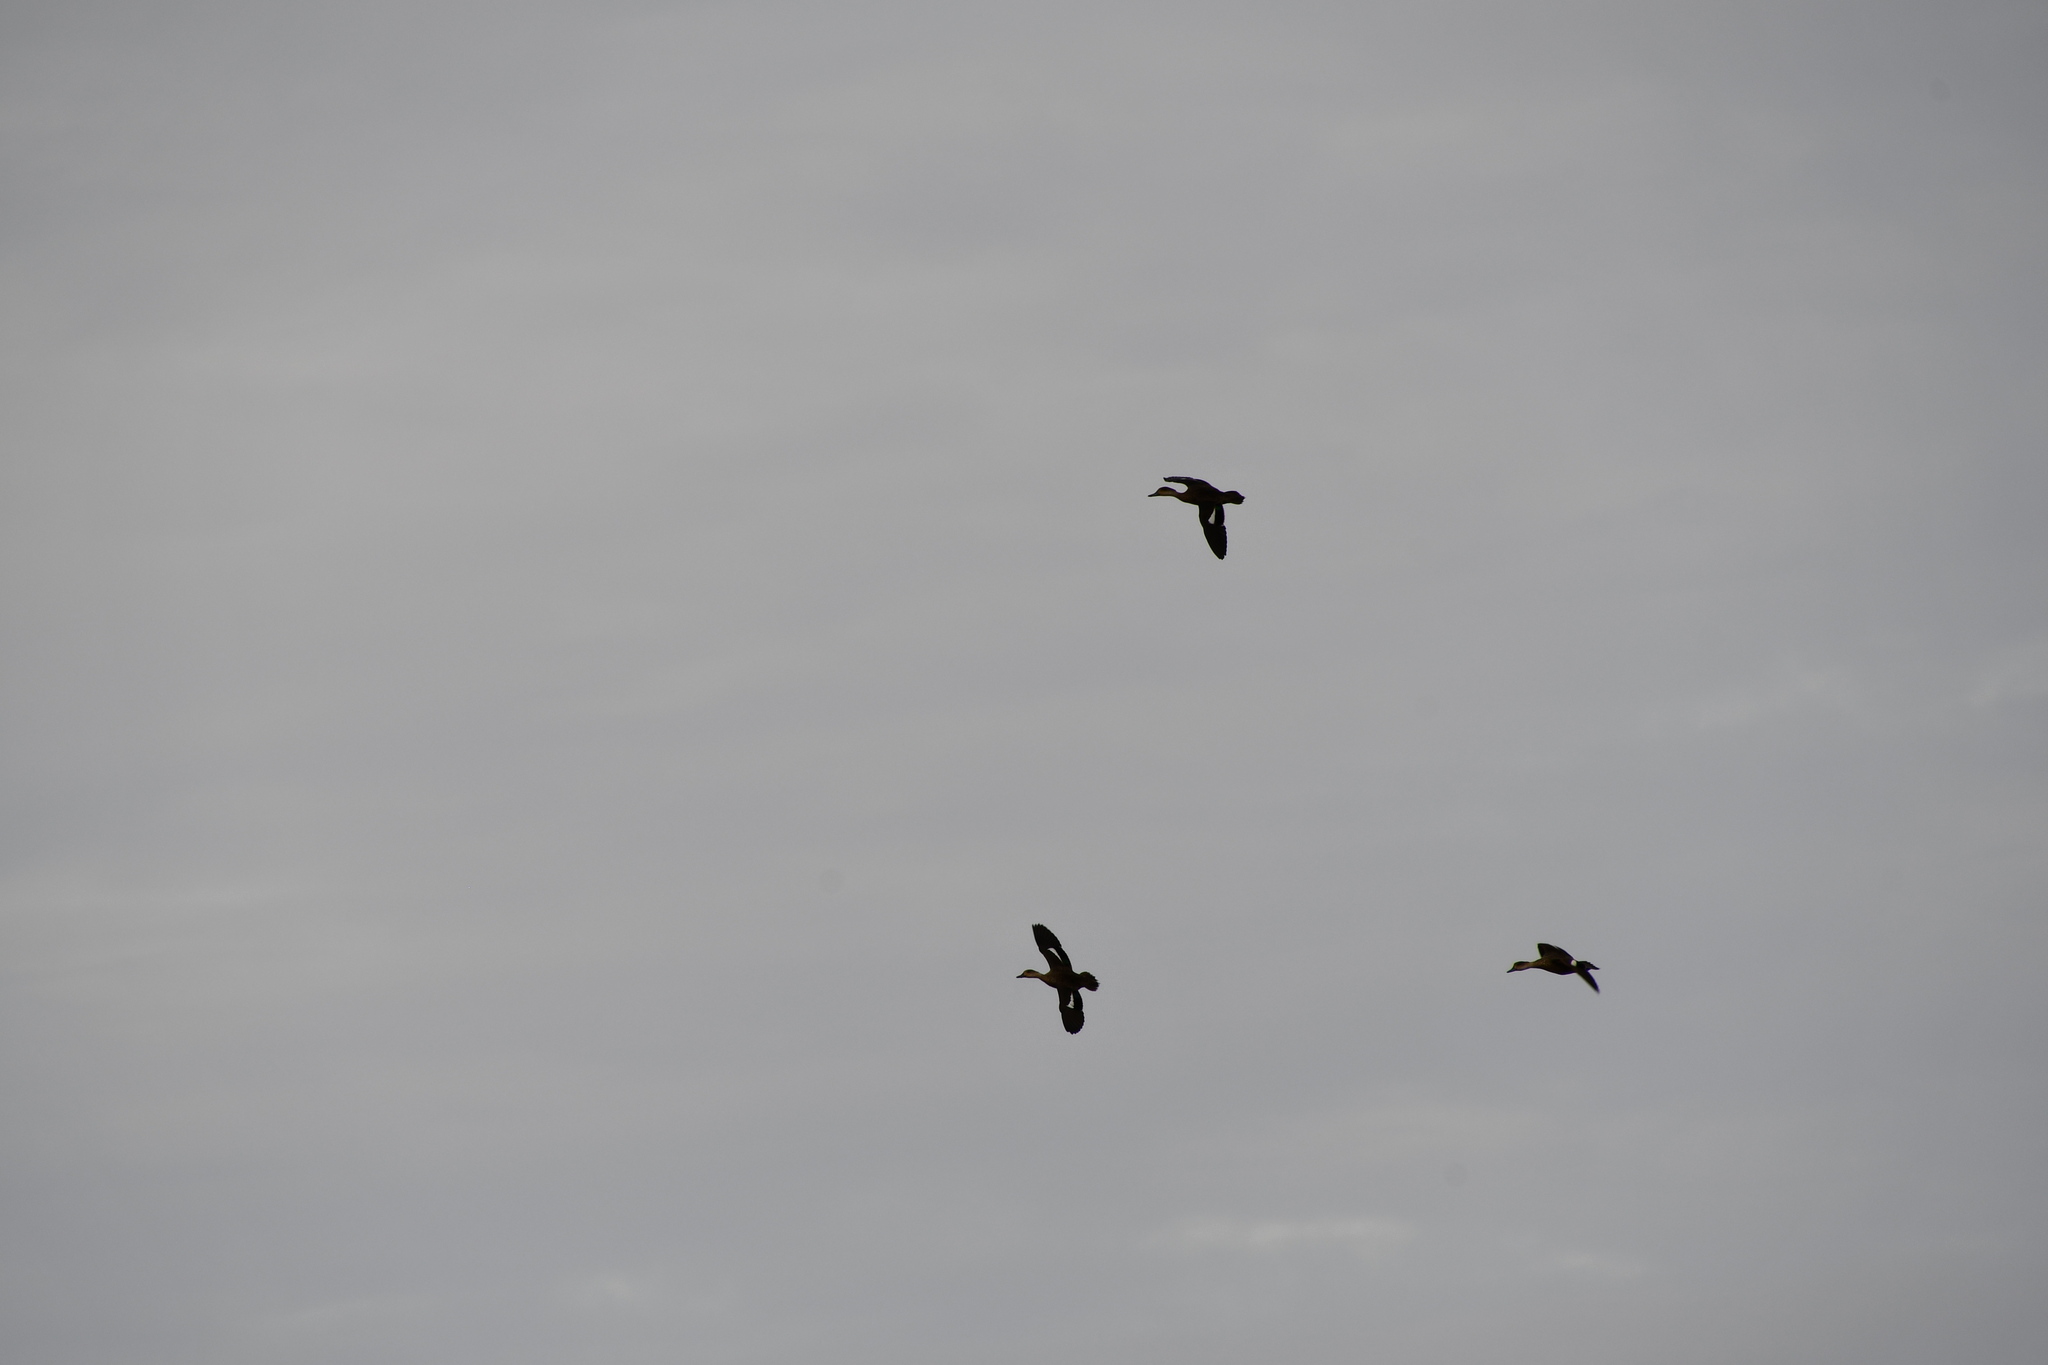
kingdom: Animalia
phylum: Chordata
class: Aves
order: Anseriformes
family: Anatidae
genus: Anas
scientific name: Anas gracilis
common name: Grey teal
